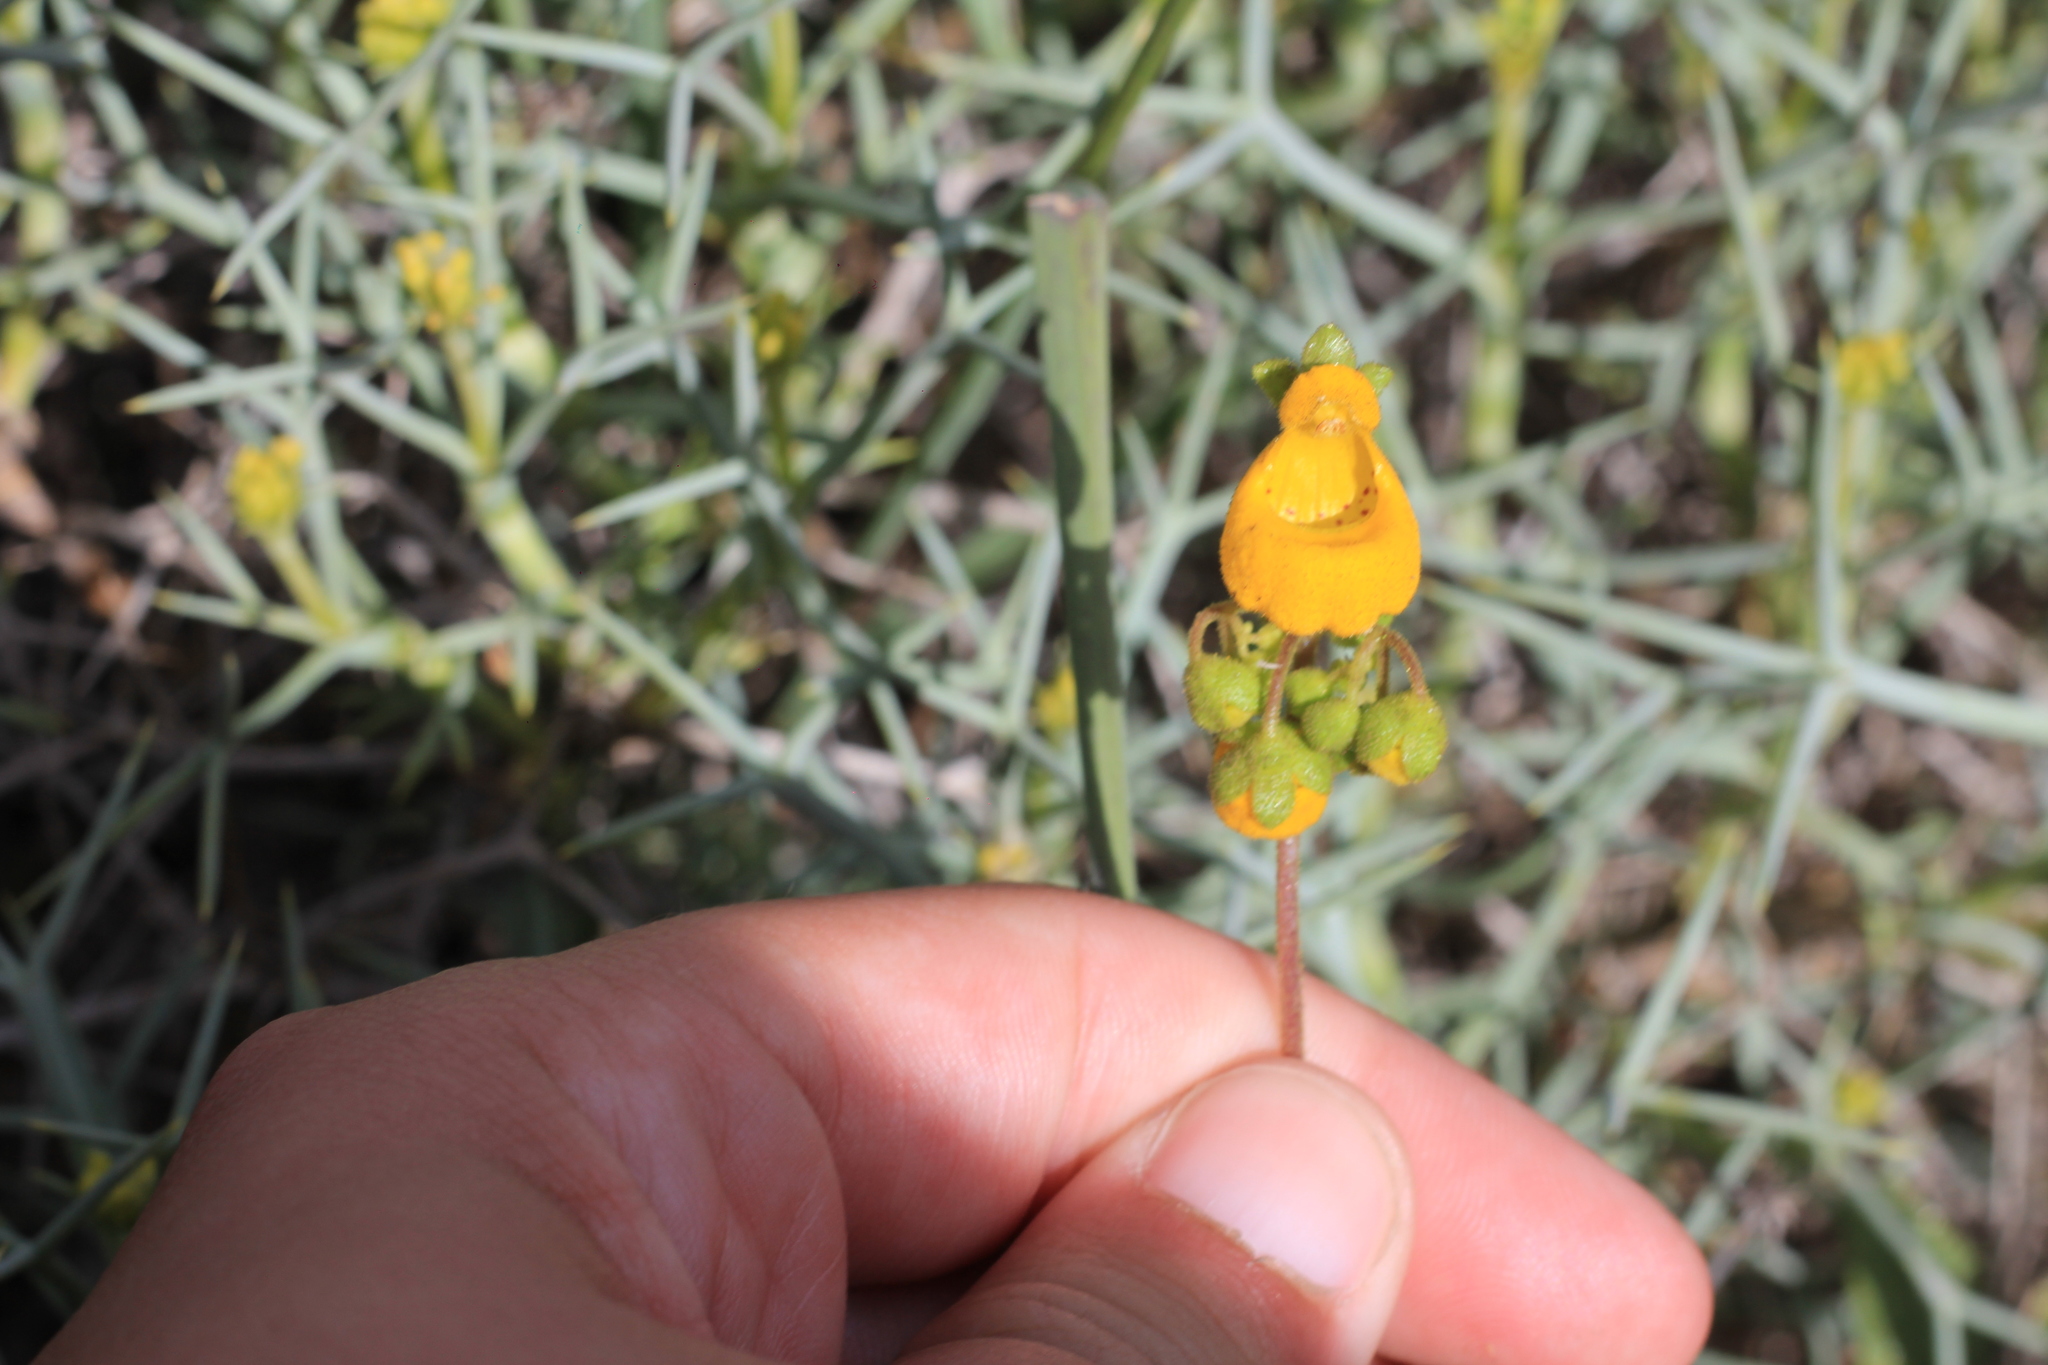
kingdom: Plantae
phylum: Tracheophyta
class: Magnoliopsida
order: Lamiales
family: Calceolariaceae
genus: Calceolaria
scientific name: Calceolaria germainii
